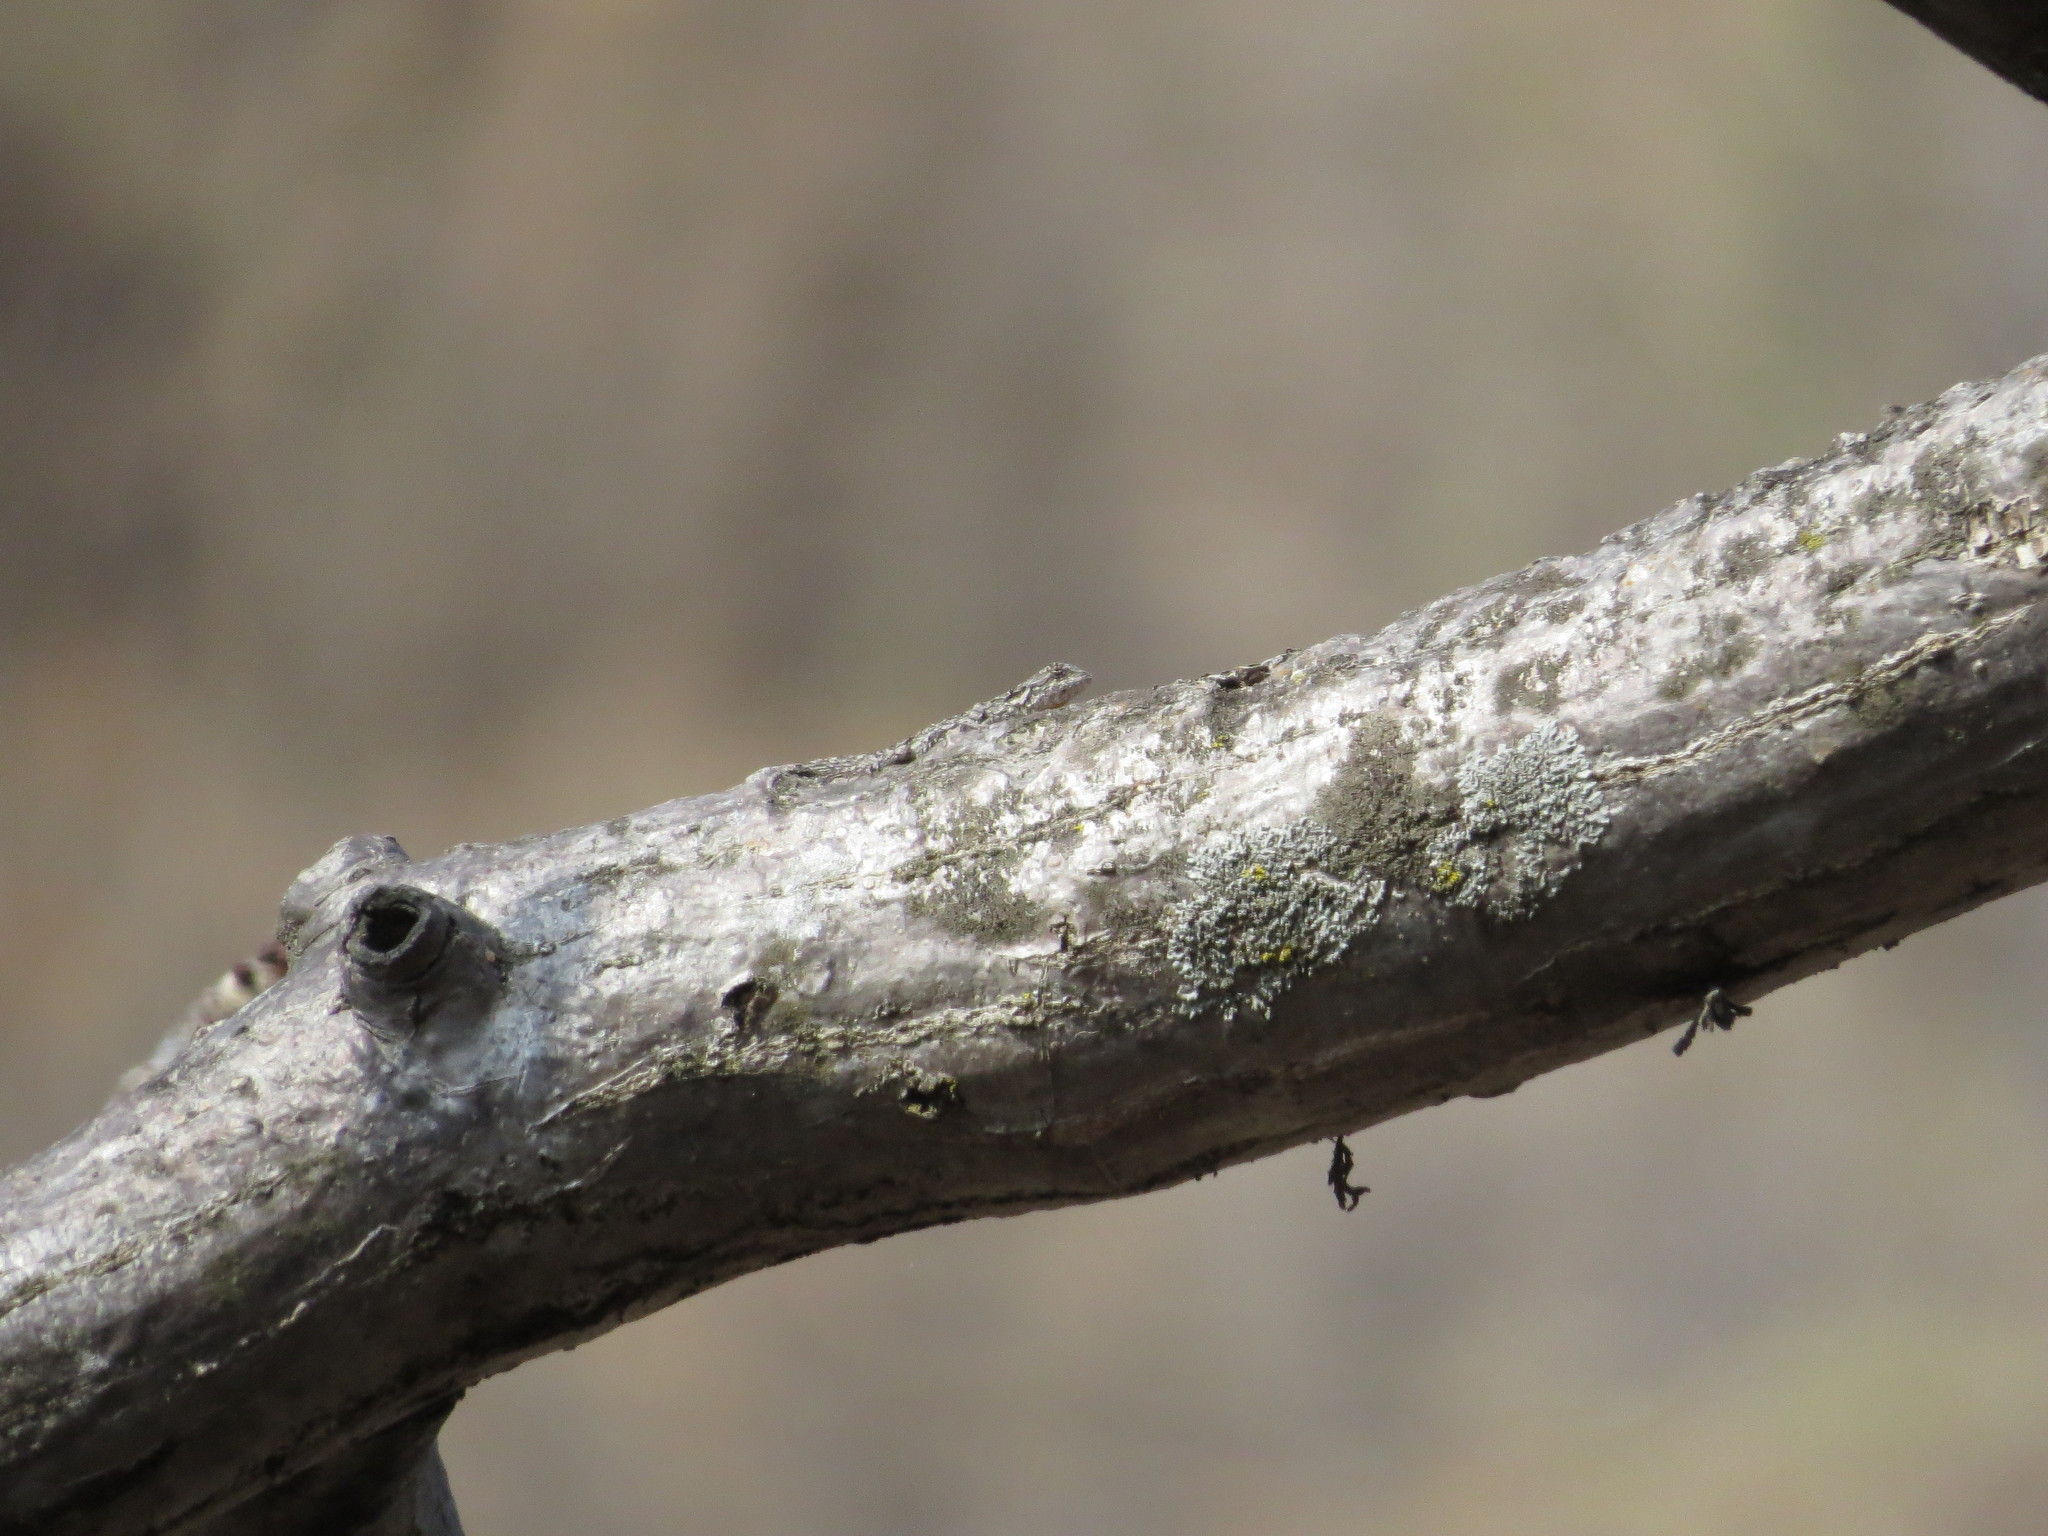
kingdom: Animalia
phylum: Chordata
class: Squamata
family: Phrynosomatidae
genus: Sceloporus
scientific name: Sceloporus melanorhinus
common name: Black-nosed lizard
